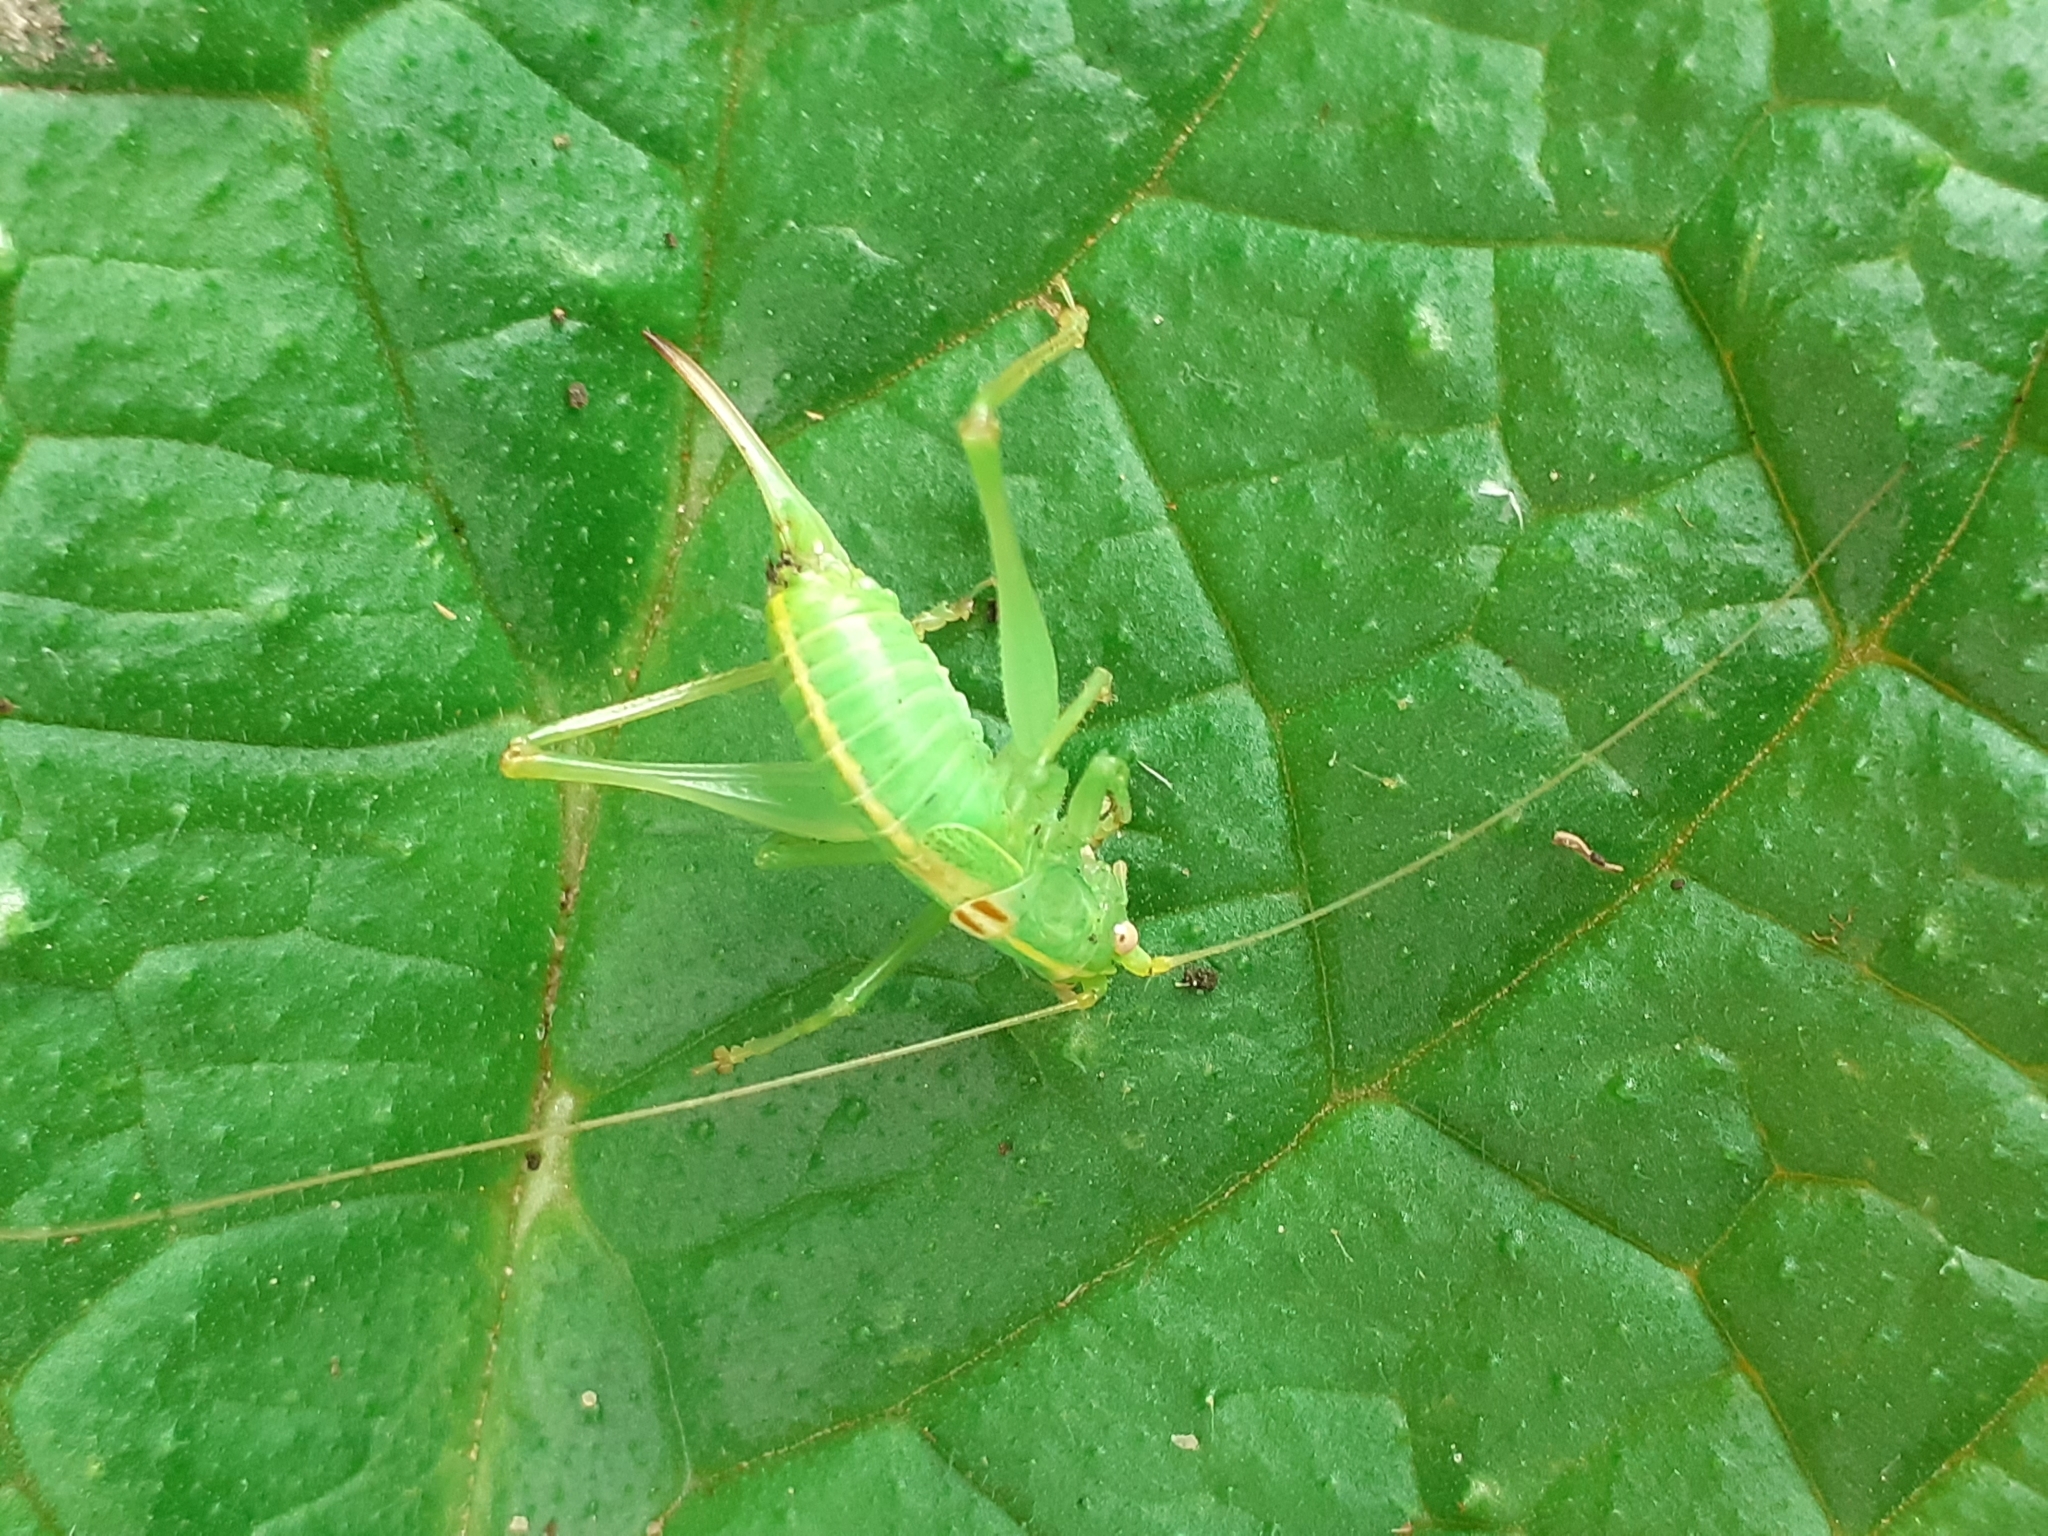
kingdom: Animalia
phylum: Arthropoda
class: Insecta
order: Orthoptera
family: Tettigoniidae
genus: Meconema
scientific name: Meconema meridionale
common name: Southern oak bush-cricket
